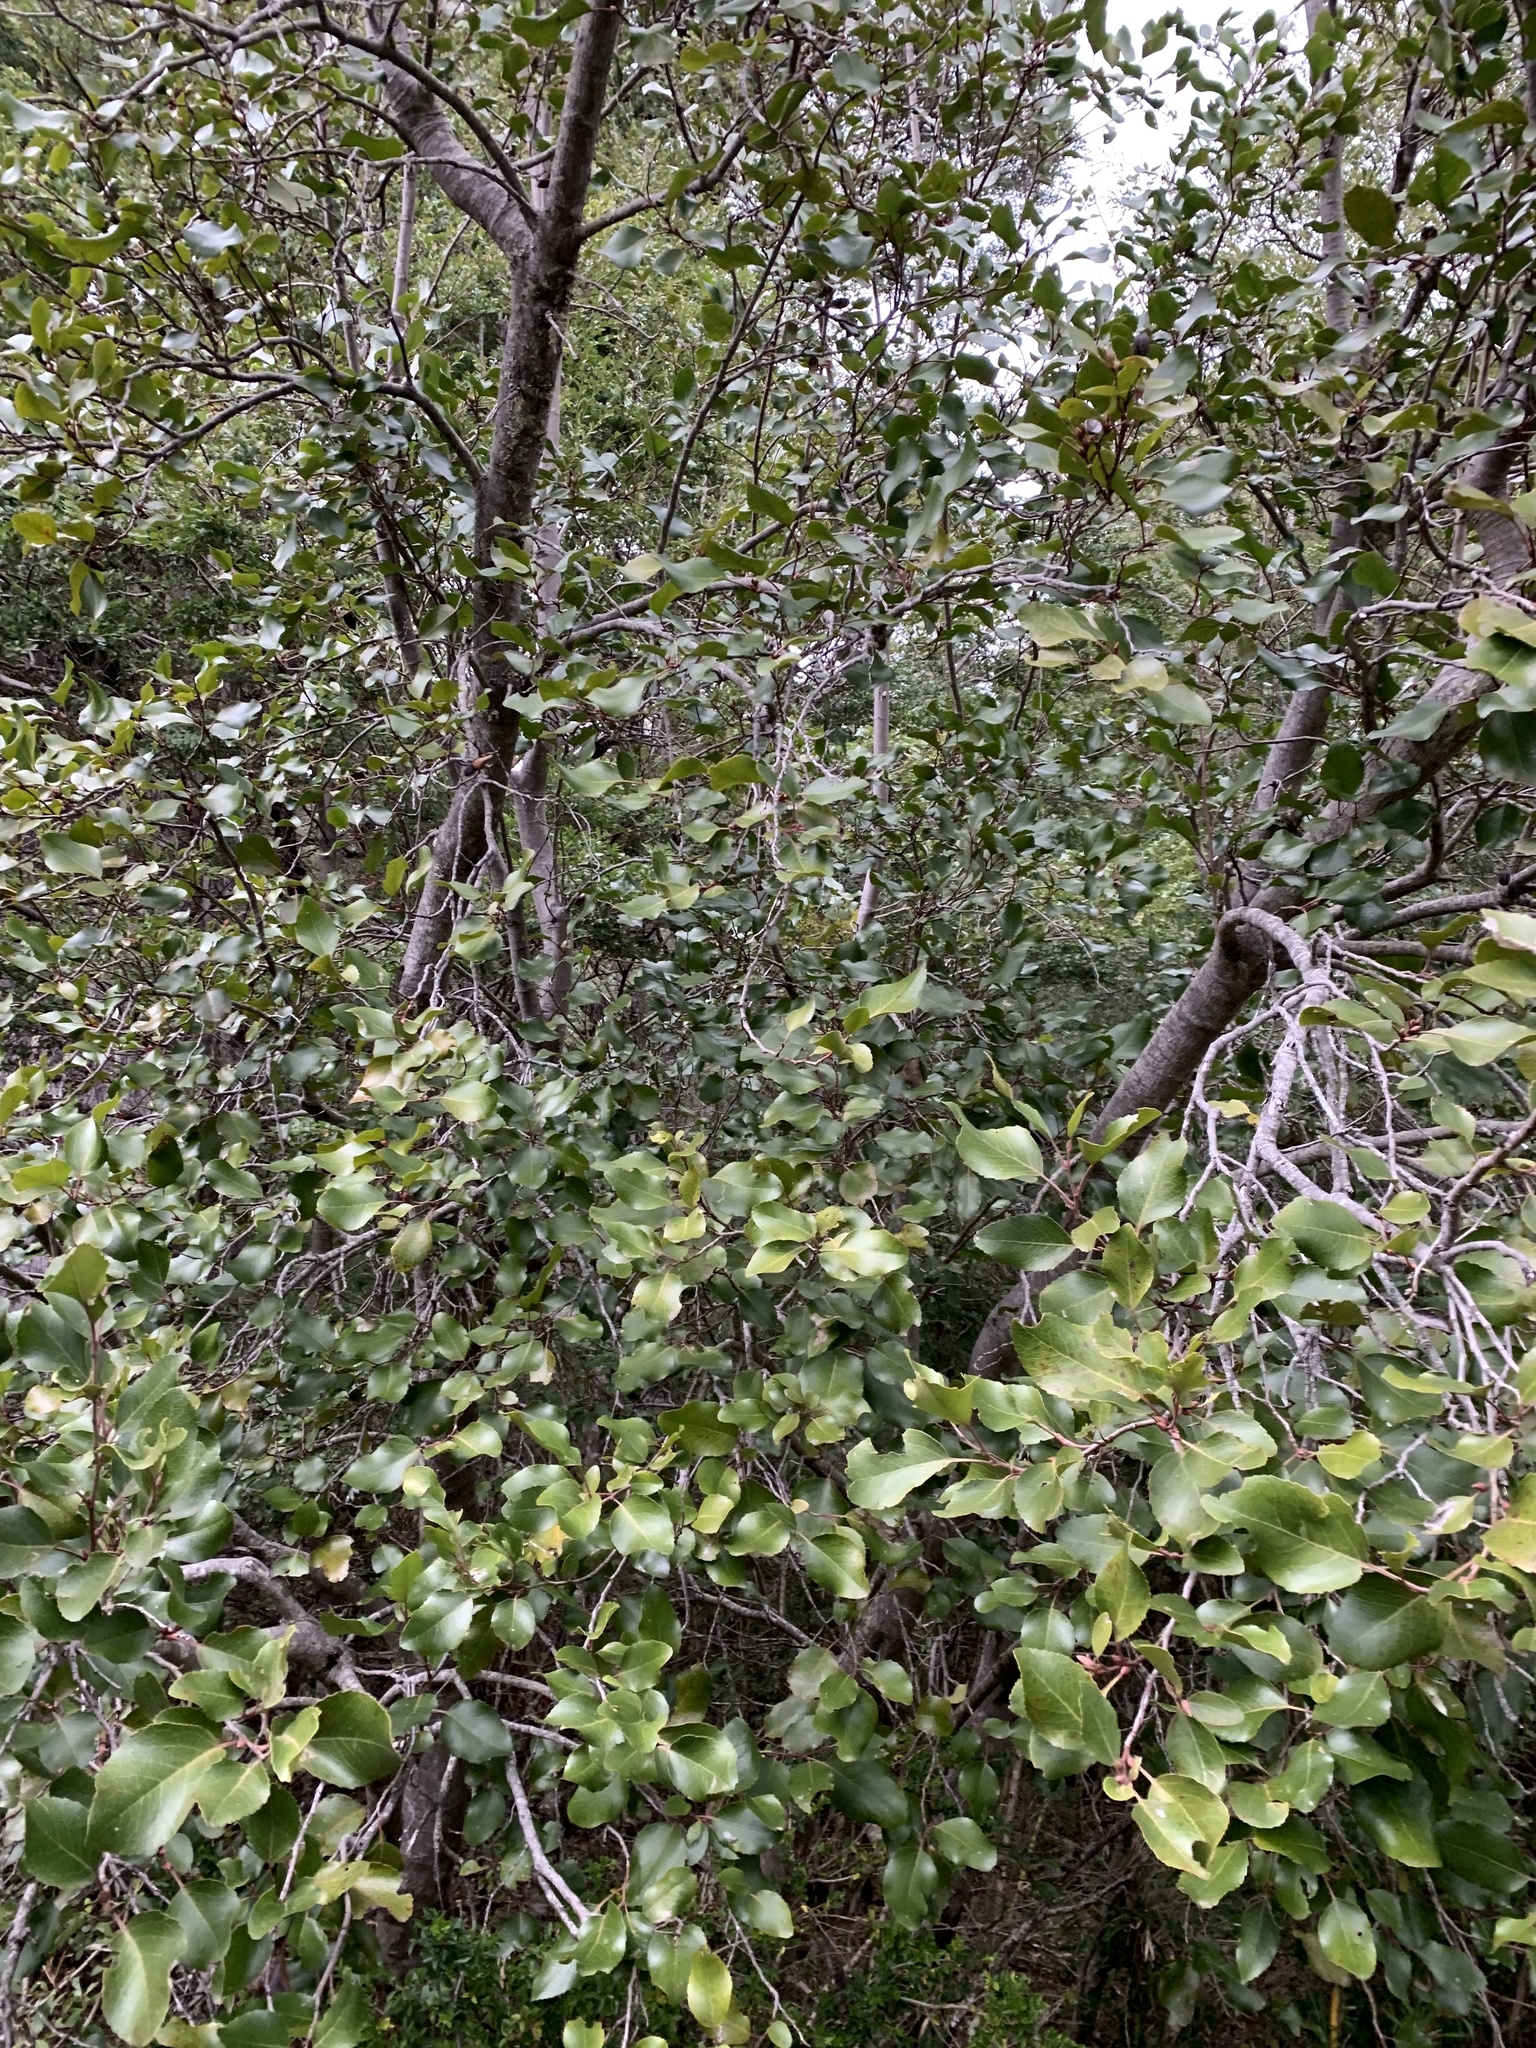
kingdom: Plantae
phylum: Tracheophyta
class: Magnoliopsida
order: Proteales
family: Proteaceae
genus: Lomatia
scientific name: Lomatia hirsuta
